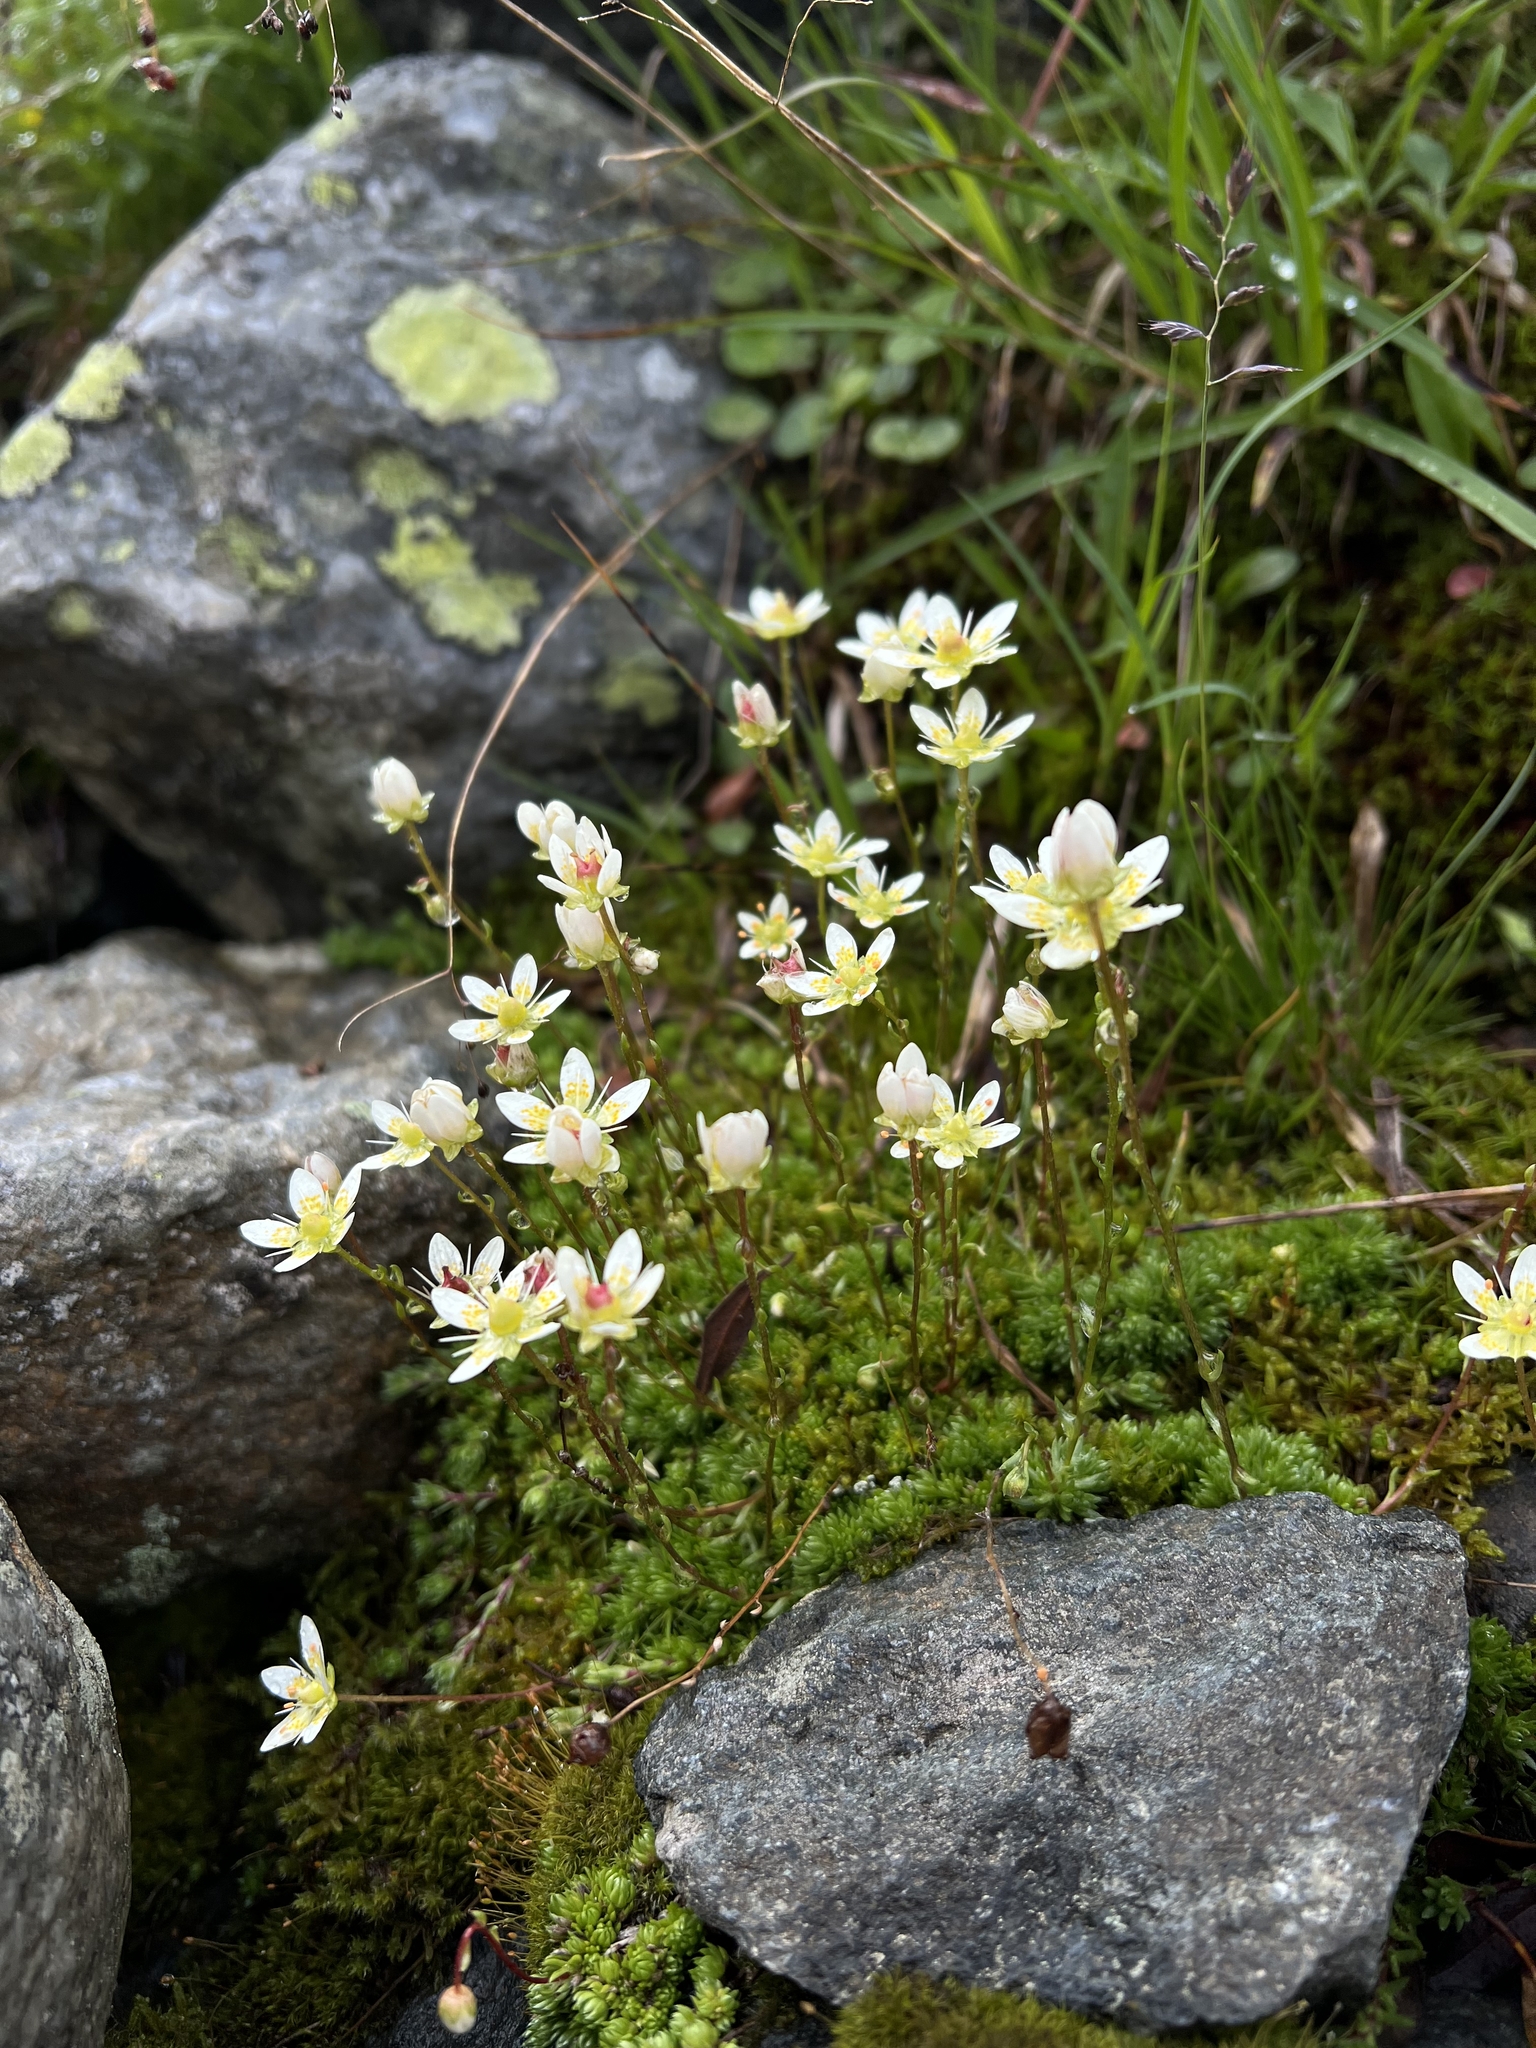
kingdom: Plantae
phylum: Tracheophyta
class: Magnoliopsida
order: Saxifragales
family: Saxifragaceae
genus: Saxifraga
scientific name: Saxifraga bryoides
